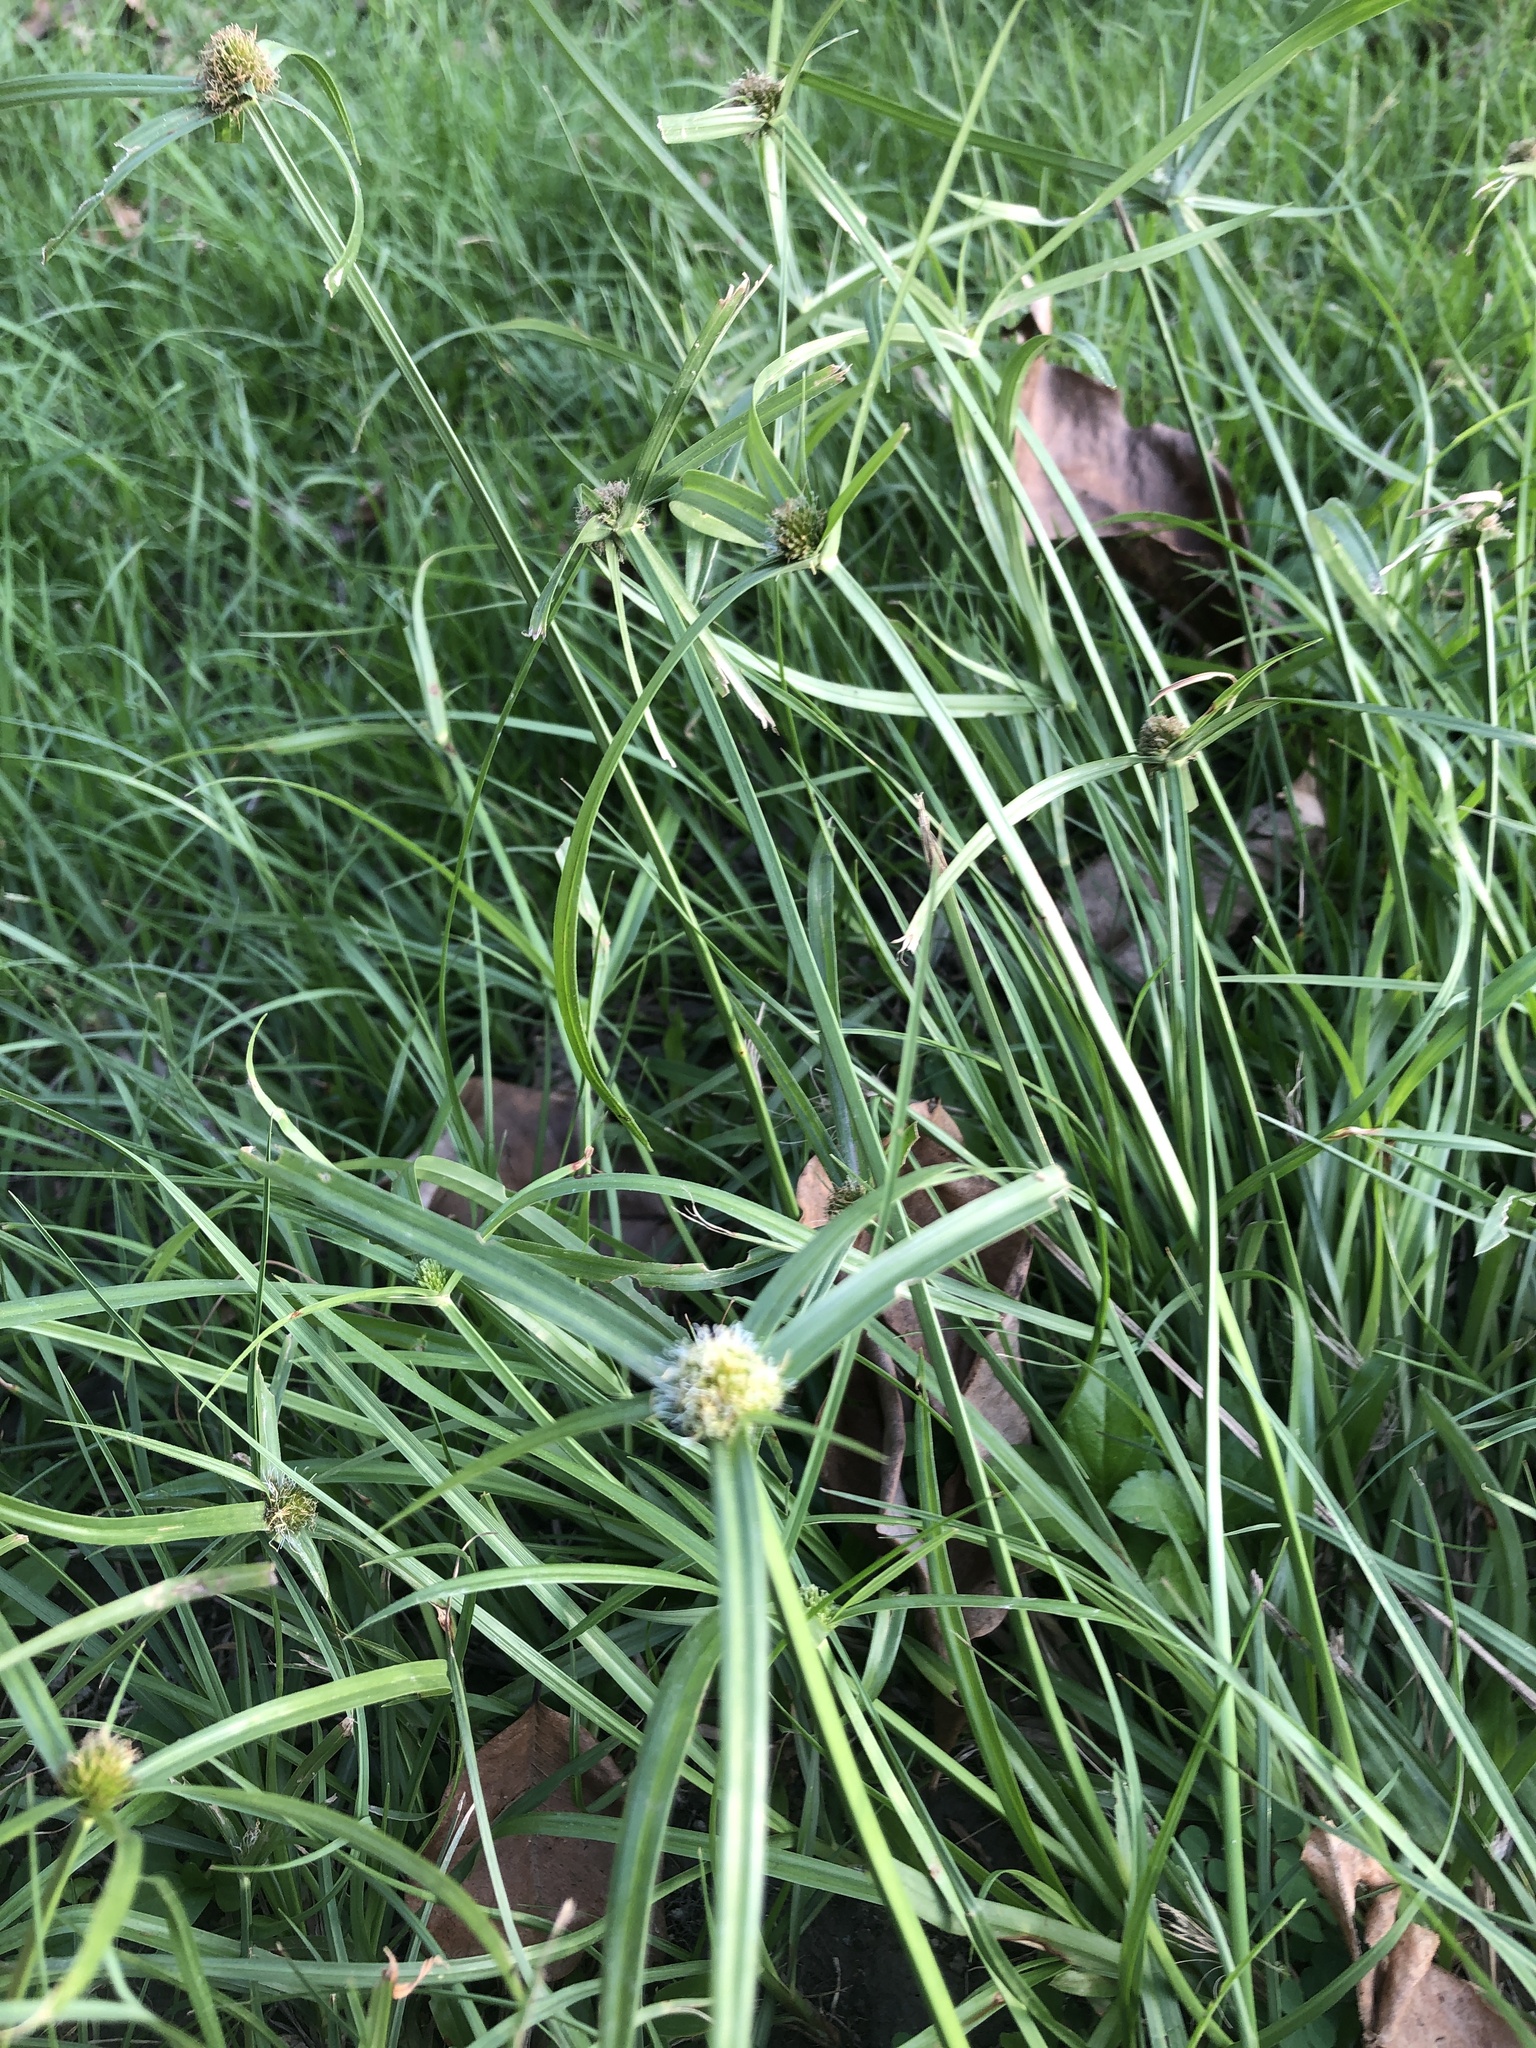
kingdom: Plantae
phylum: Tracheophyta
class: Liliopsida
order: Poales
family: Cyperaceae
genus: Cyperus
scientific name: Cyperus aromaticus
